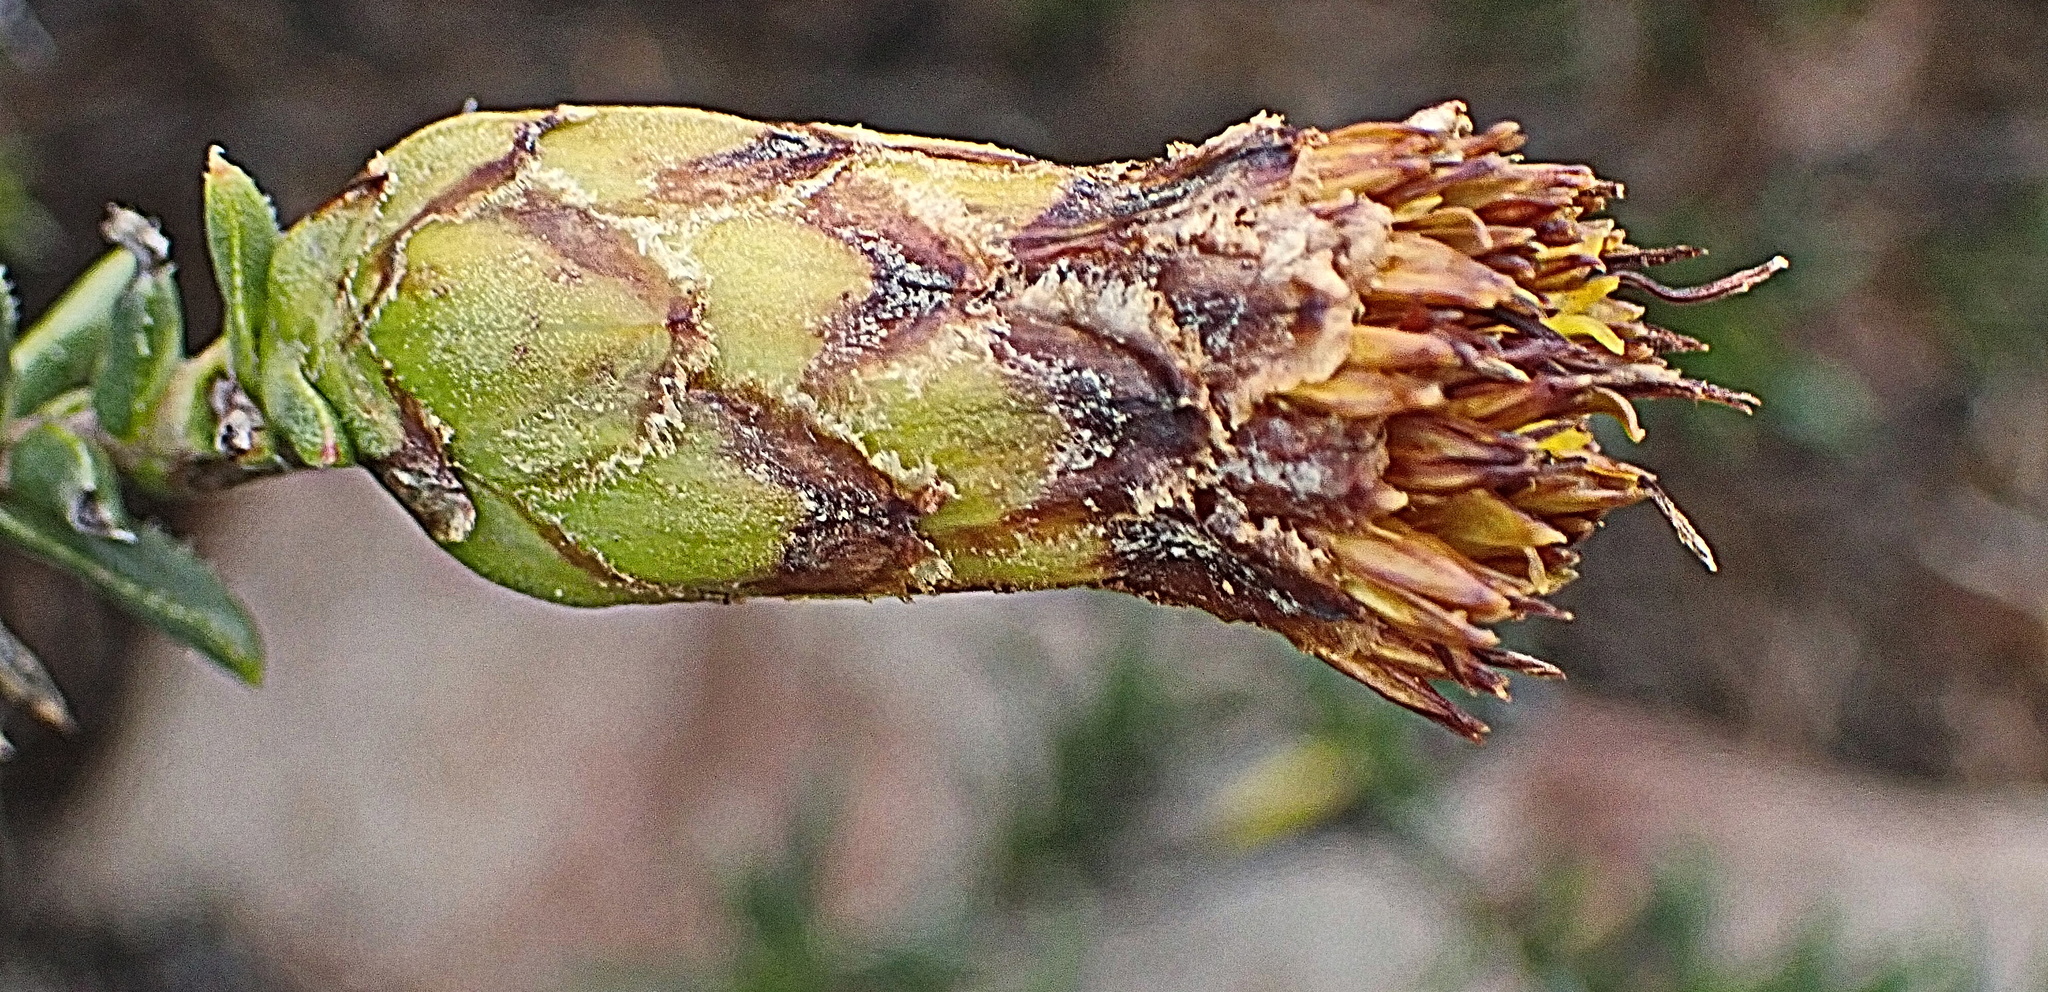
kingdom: Plantae
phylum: Tracheophyta
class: Magnoliopsida
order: Asterales
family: Asteraceae
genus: Pteronia
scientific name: Pteronia elongata
